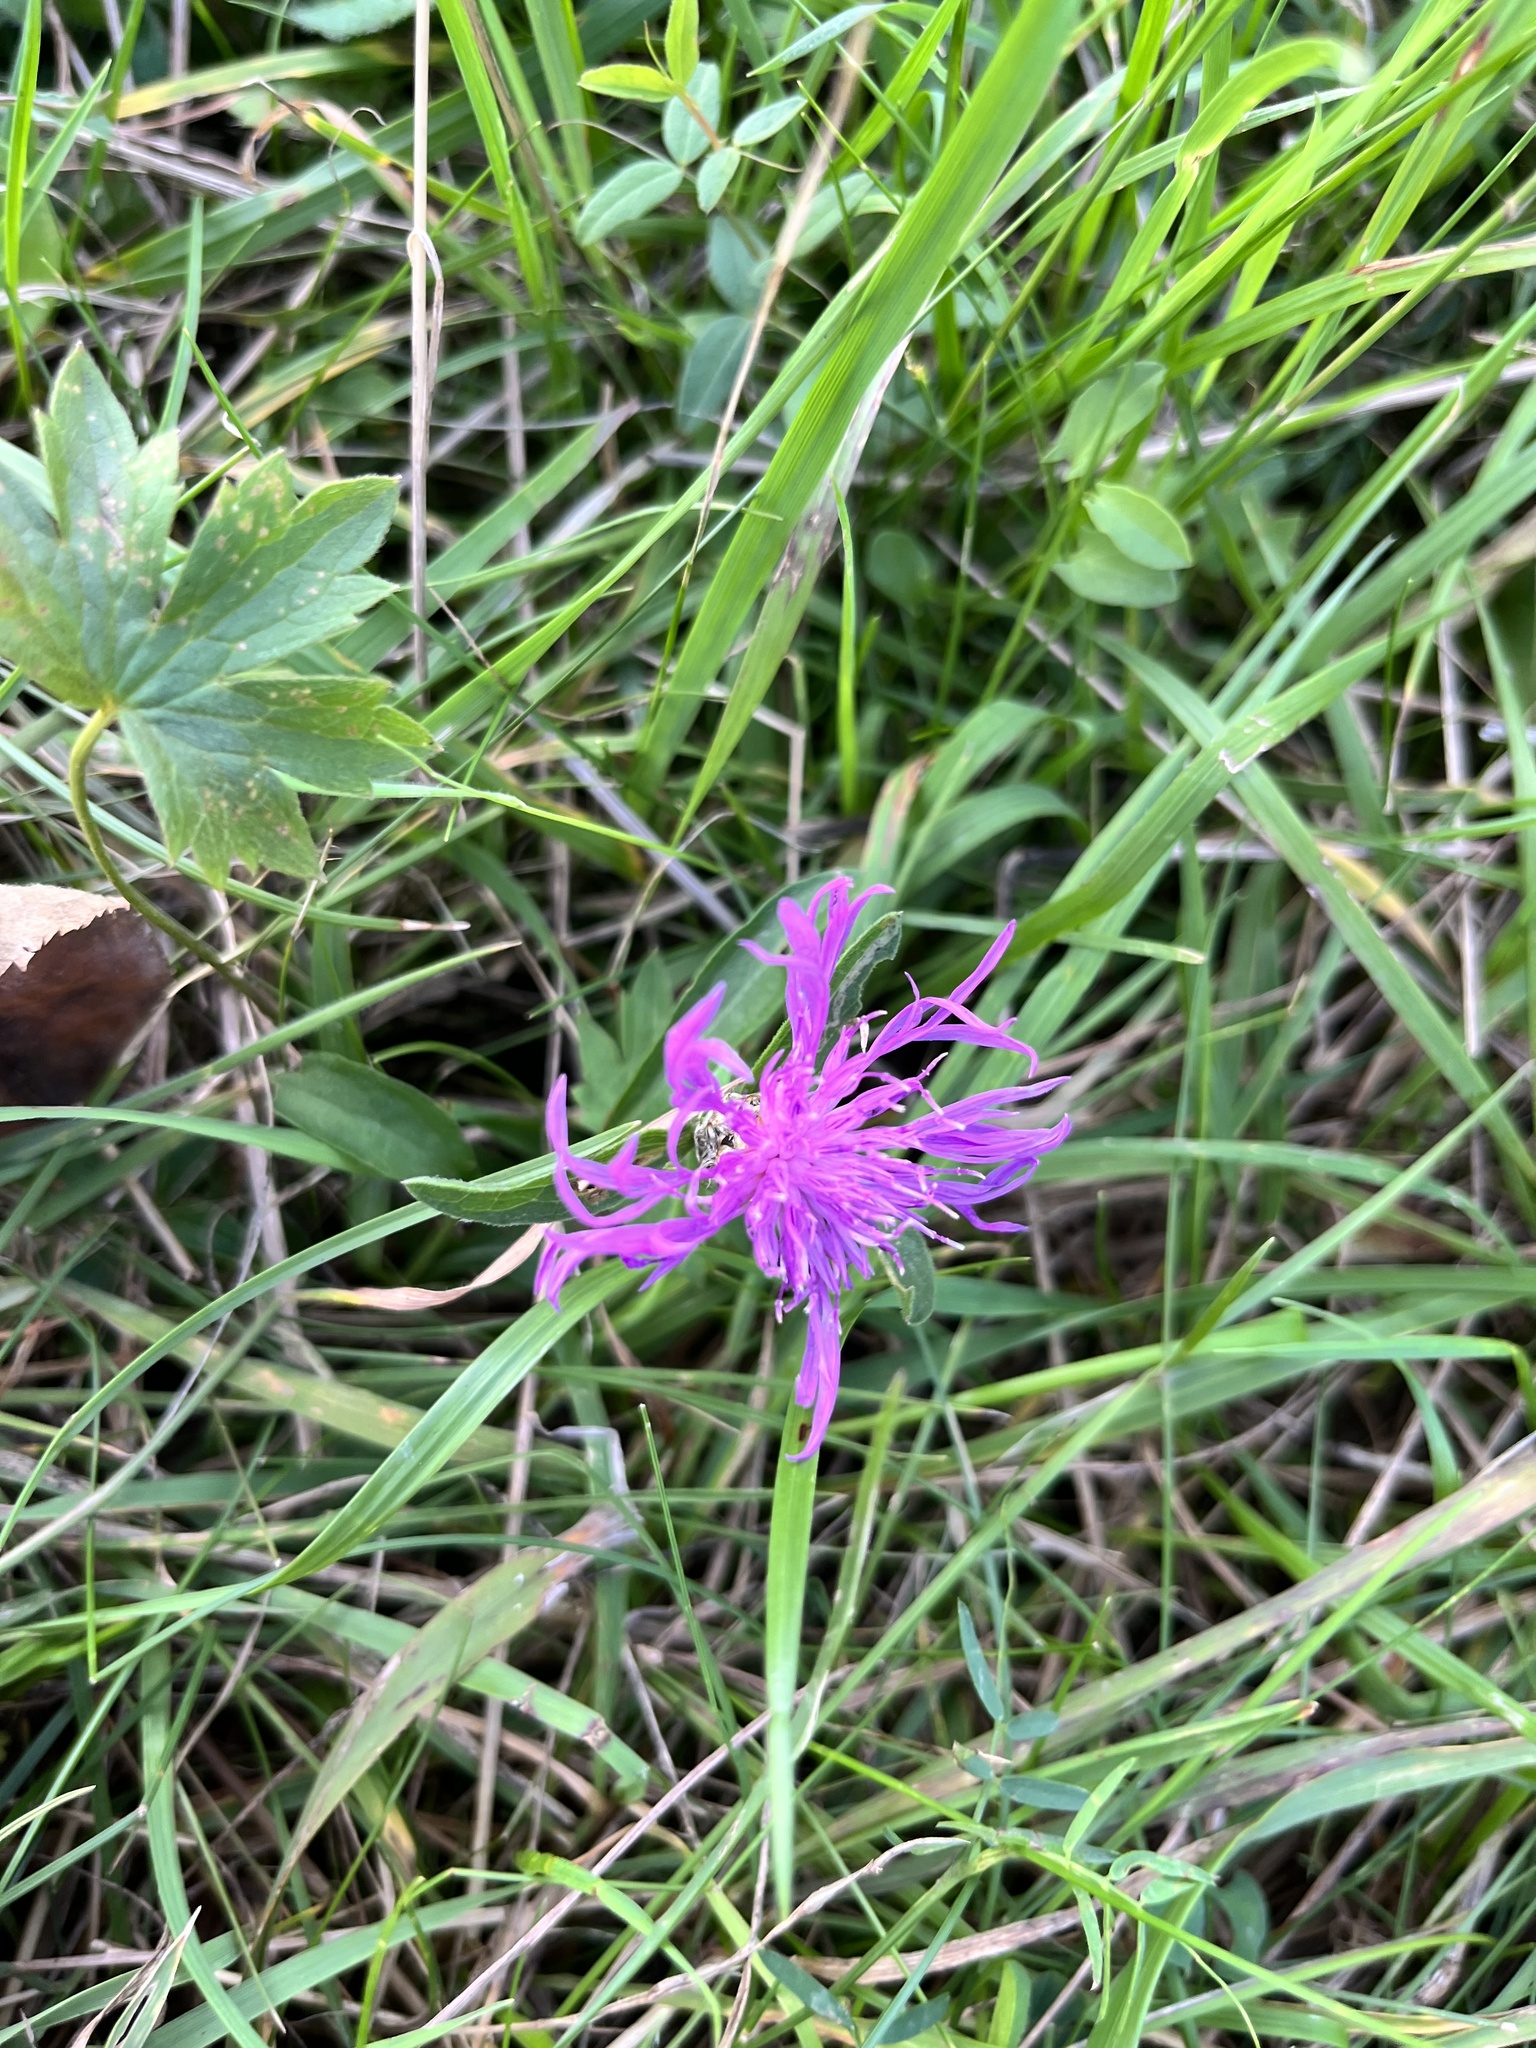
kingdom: Plantae
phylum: Tracheophyta
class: Magnoliopsida
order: Asterales
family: Asteraceae
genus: Centaurea
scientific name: Centaurea jacea
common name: Brown knapweed
